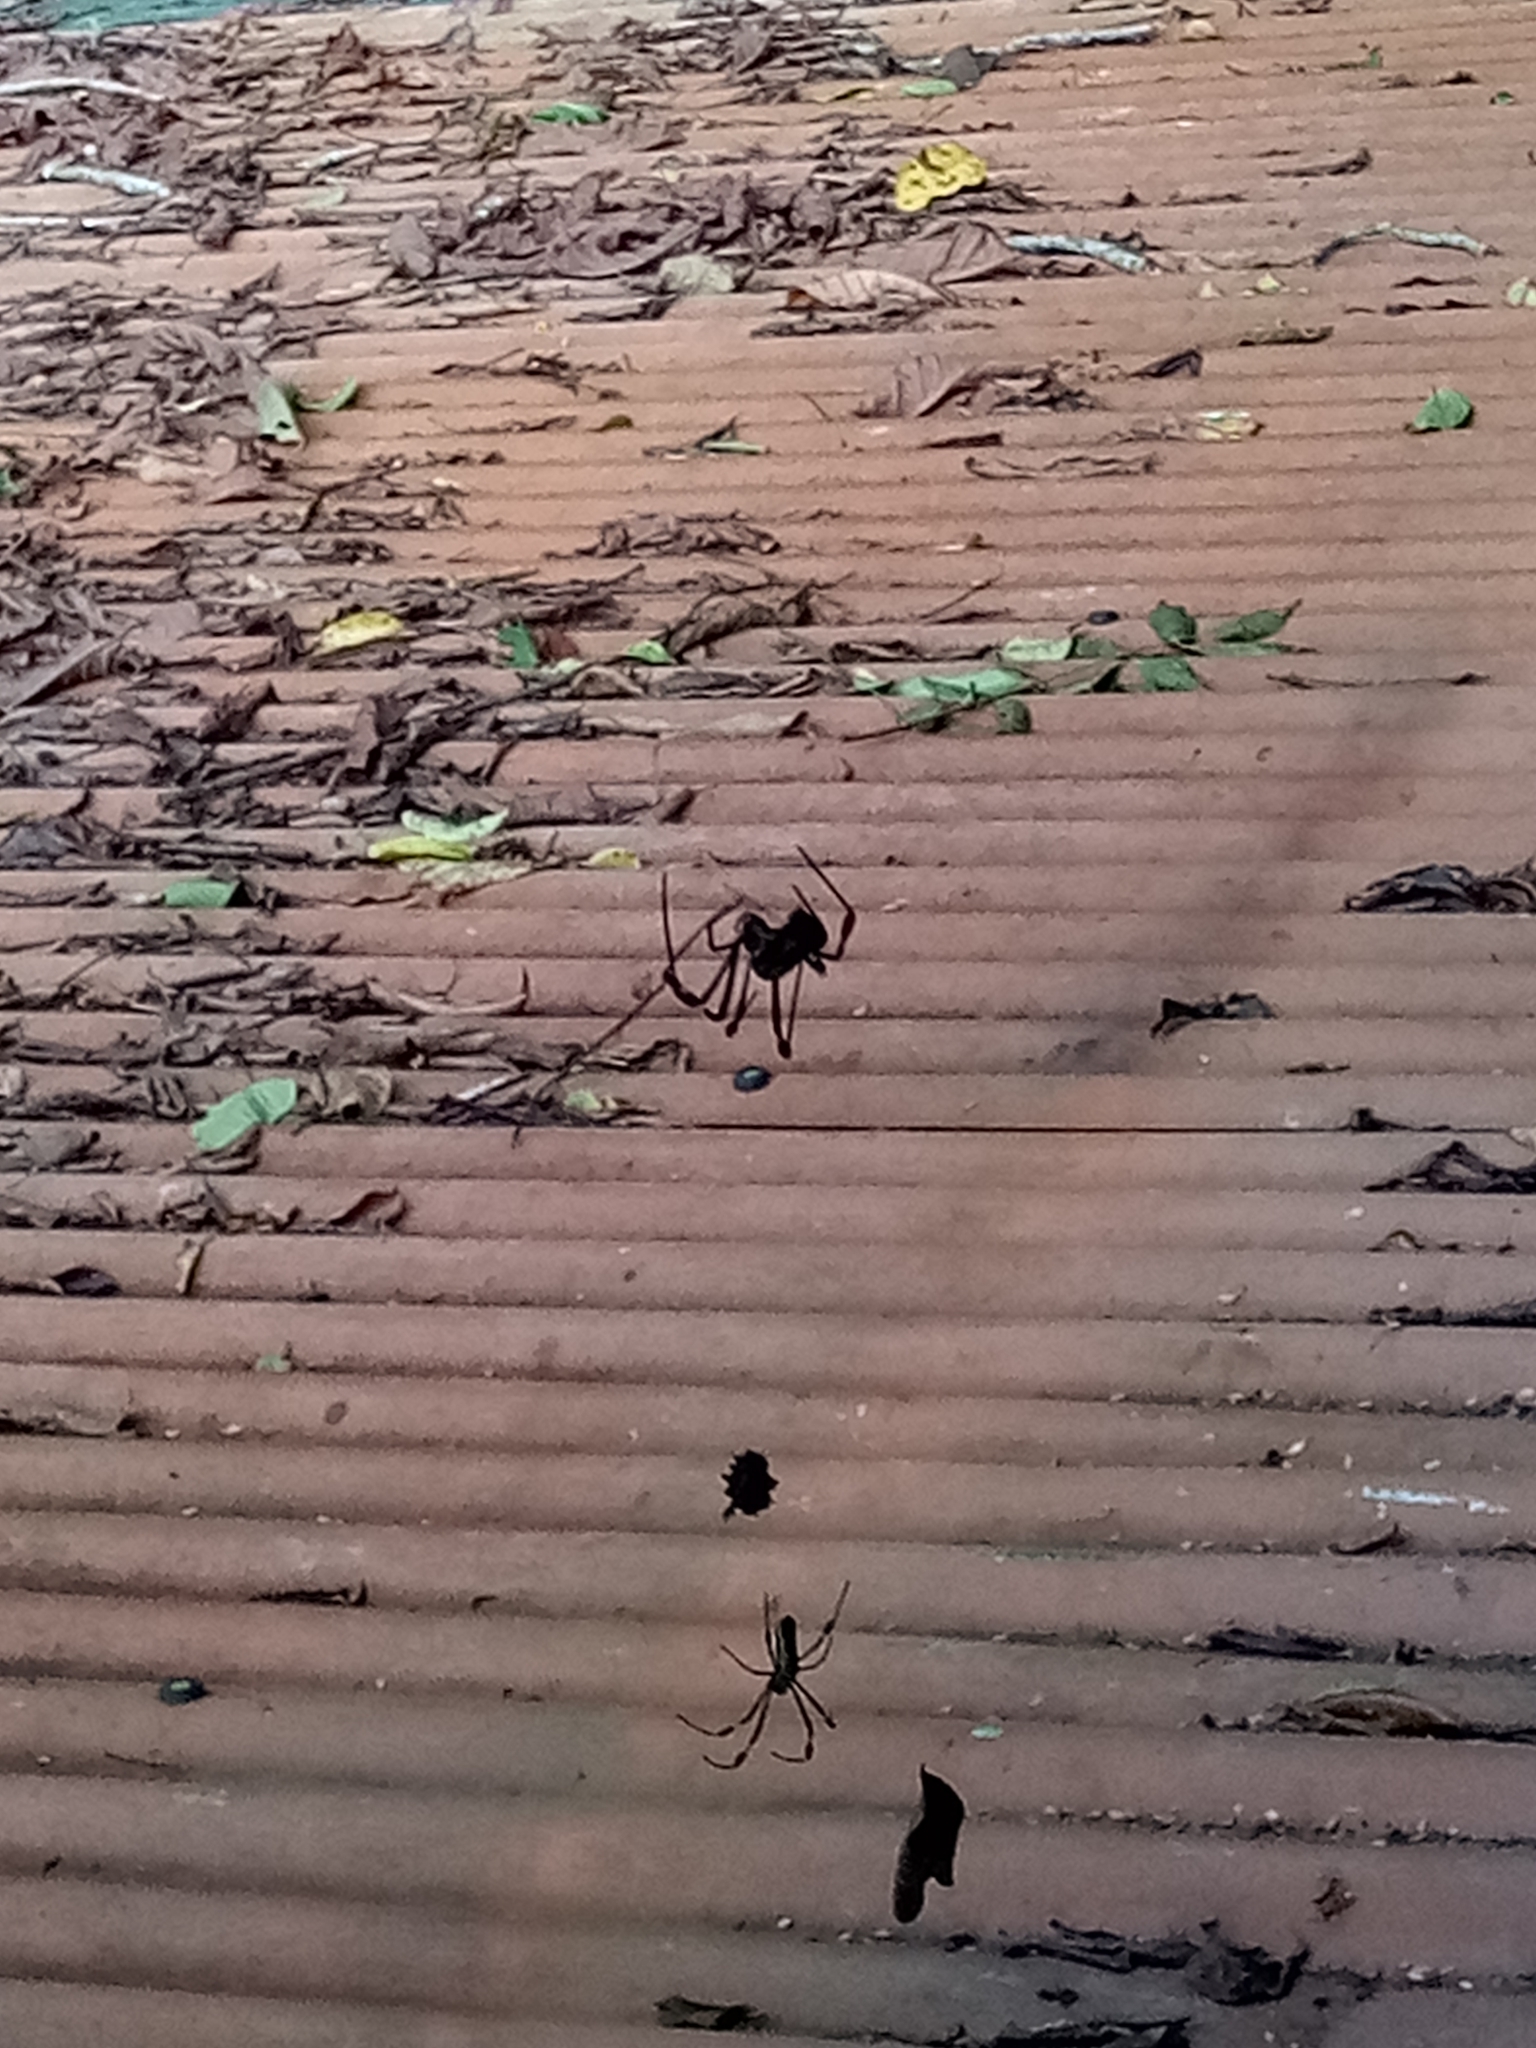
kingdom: Animalia
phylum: Arthropoda
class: Arachnida
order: Araneae
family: Araneidae
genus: Trichonephila
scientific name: Trichonephila clavipes
